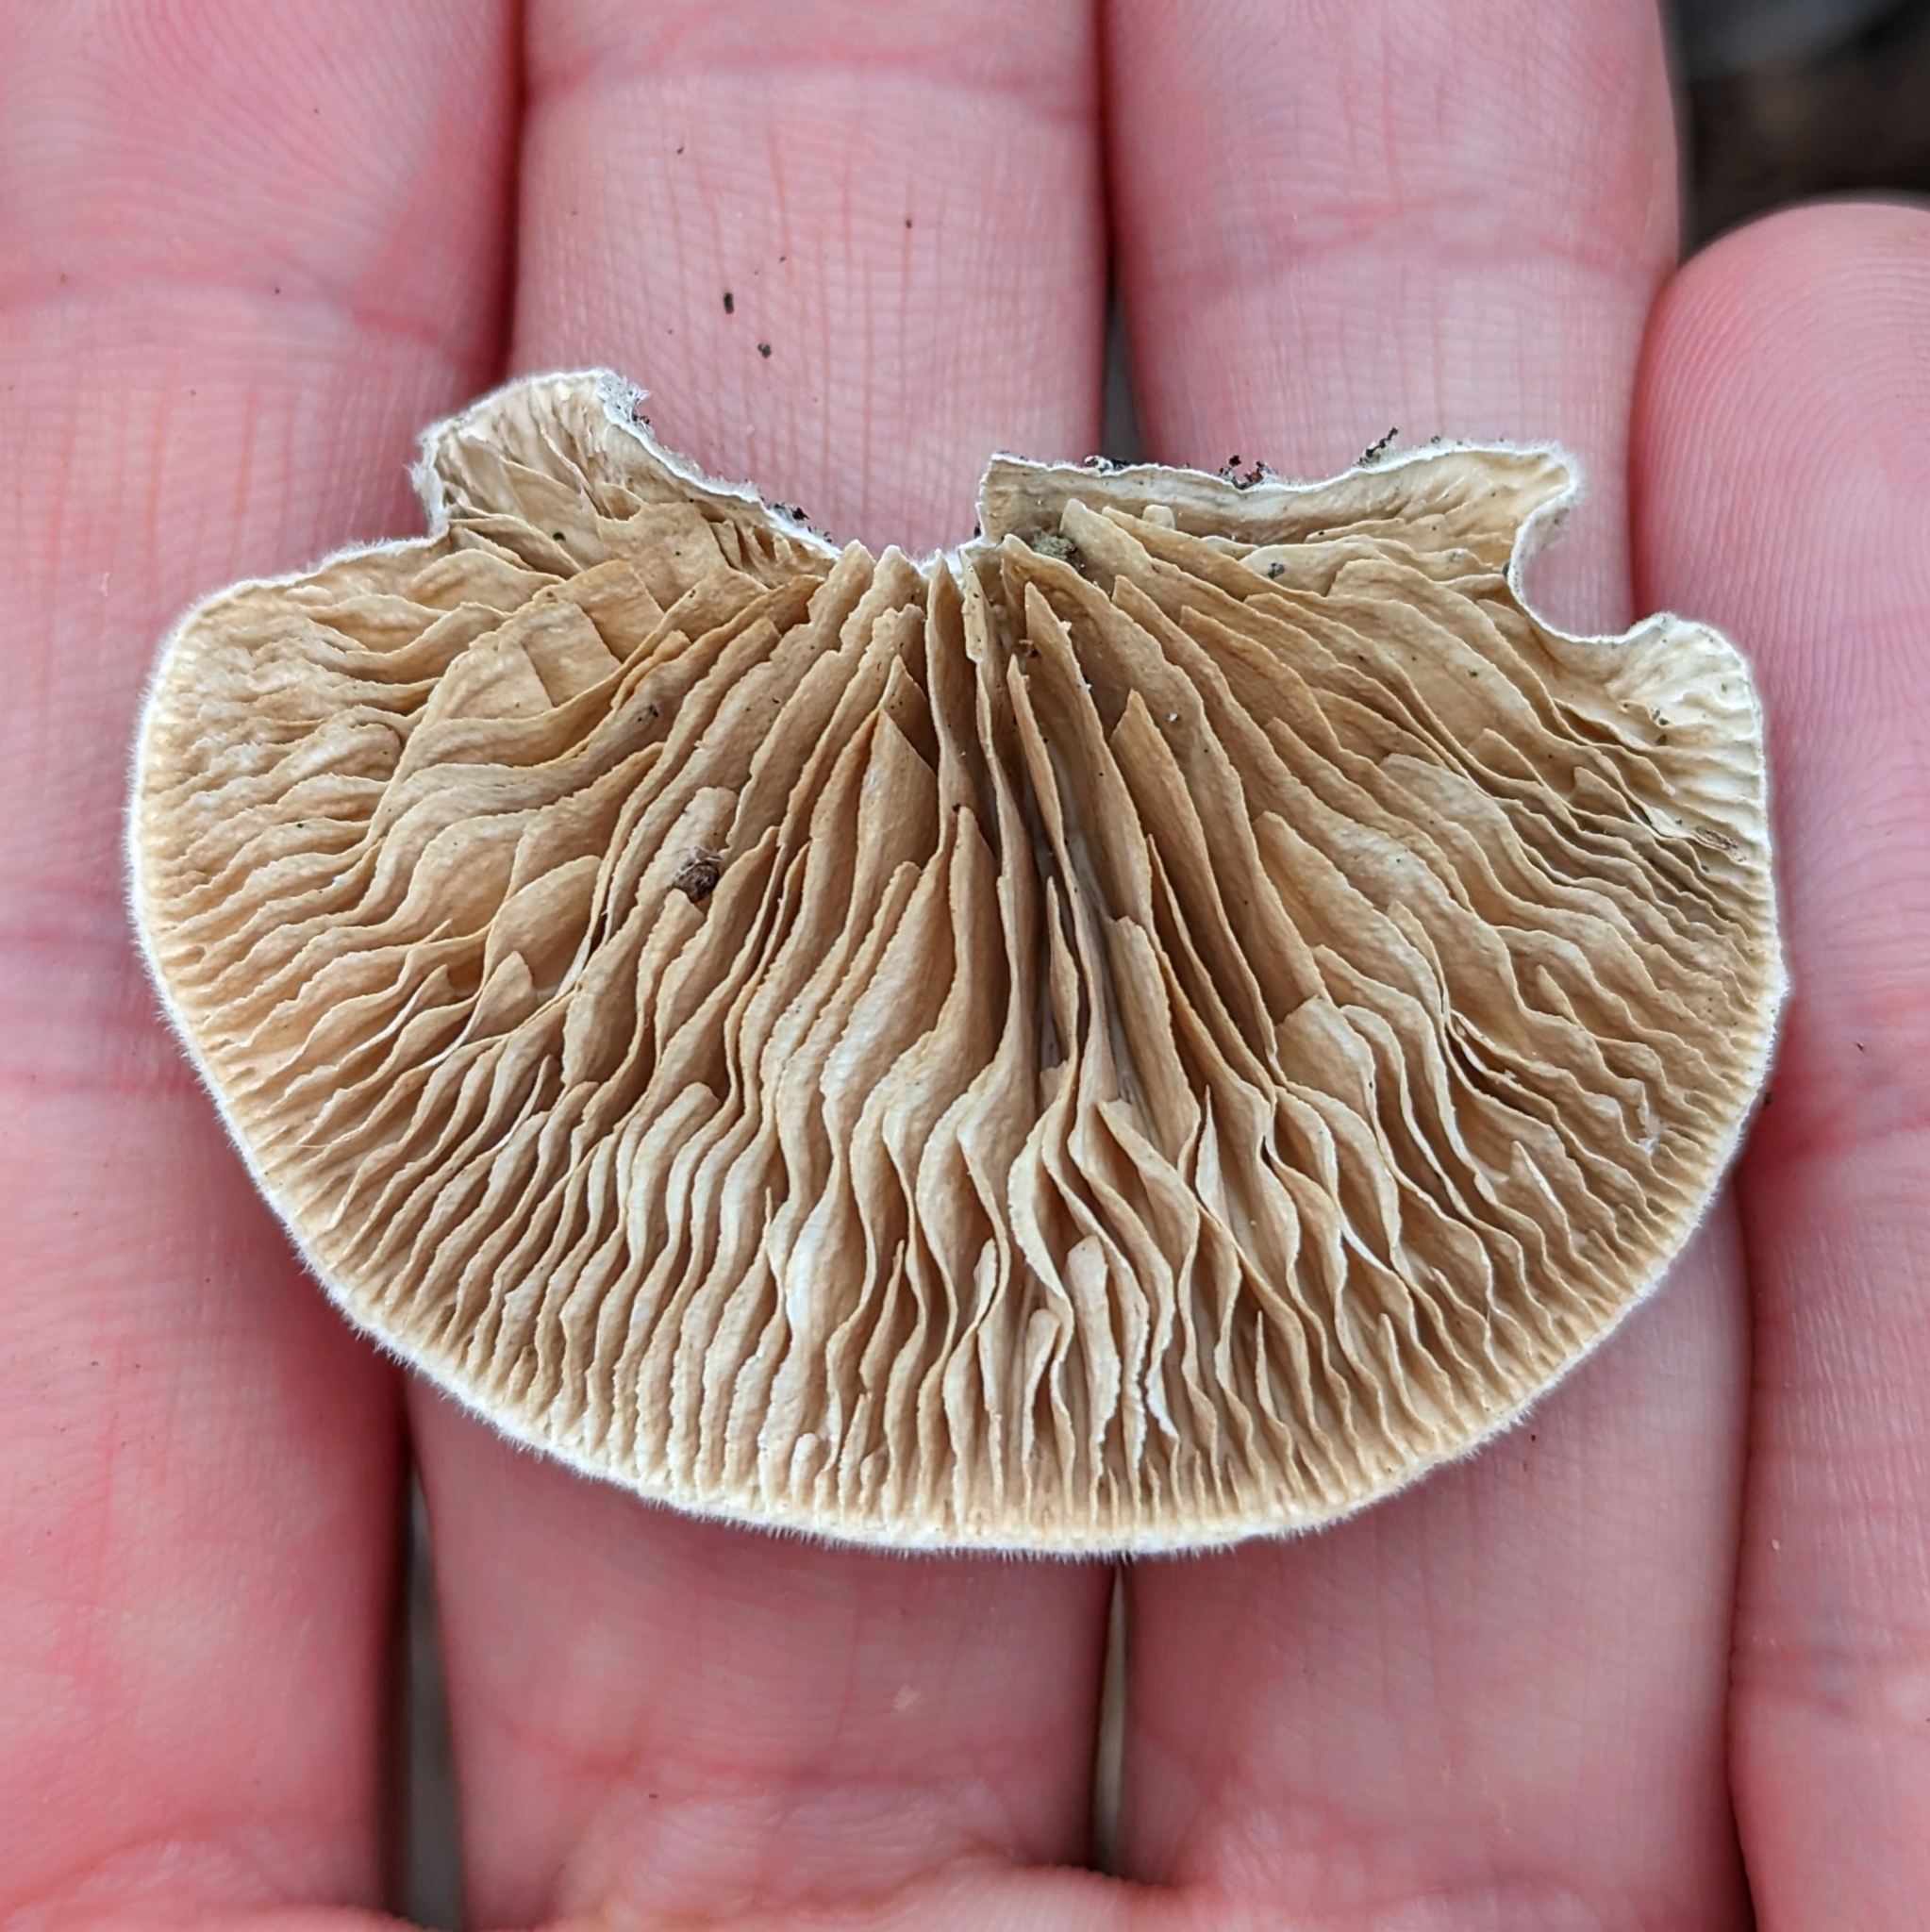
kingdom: Fungi
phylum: Basidiomycota
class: Agaricomycetes
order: Polyporales
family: Polyporaceae
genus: Lenzites
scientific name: Lenzites betulinus
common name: Birch mazegill
